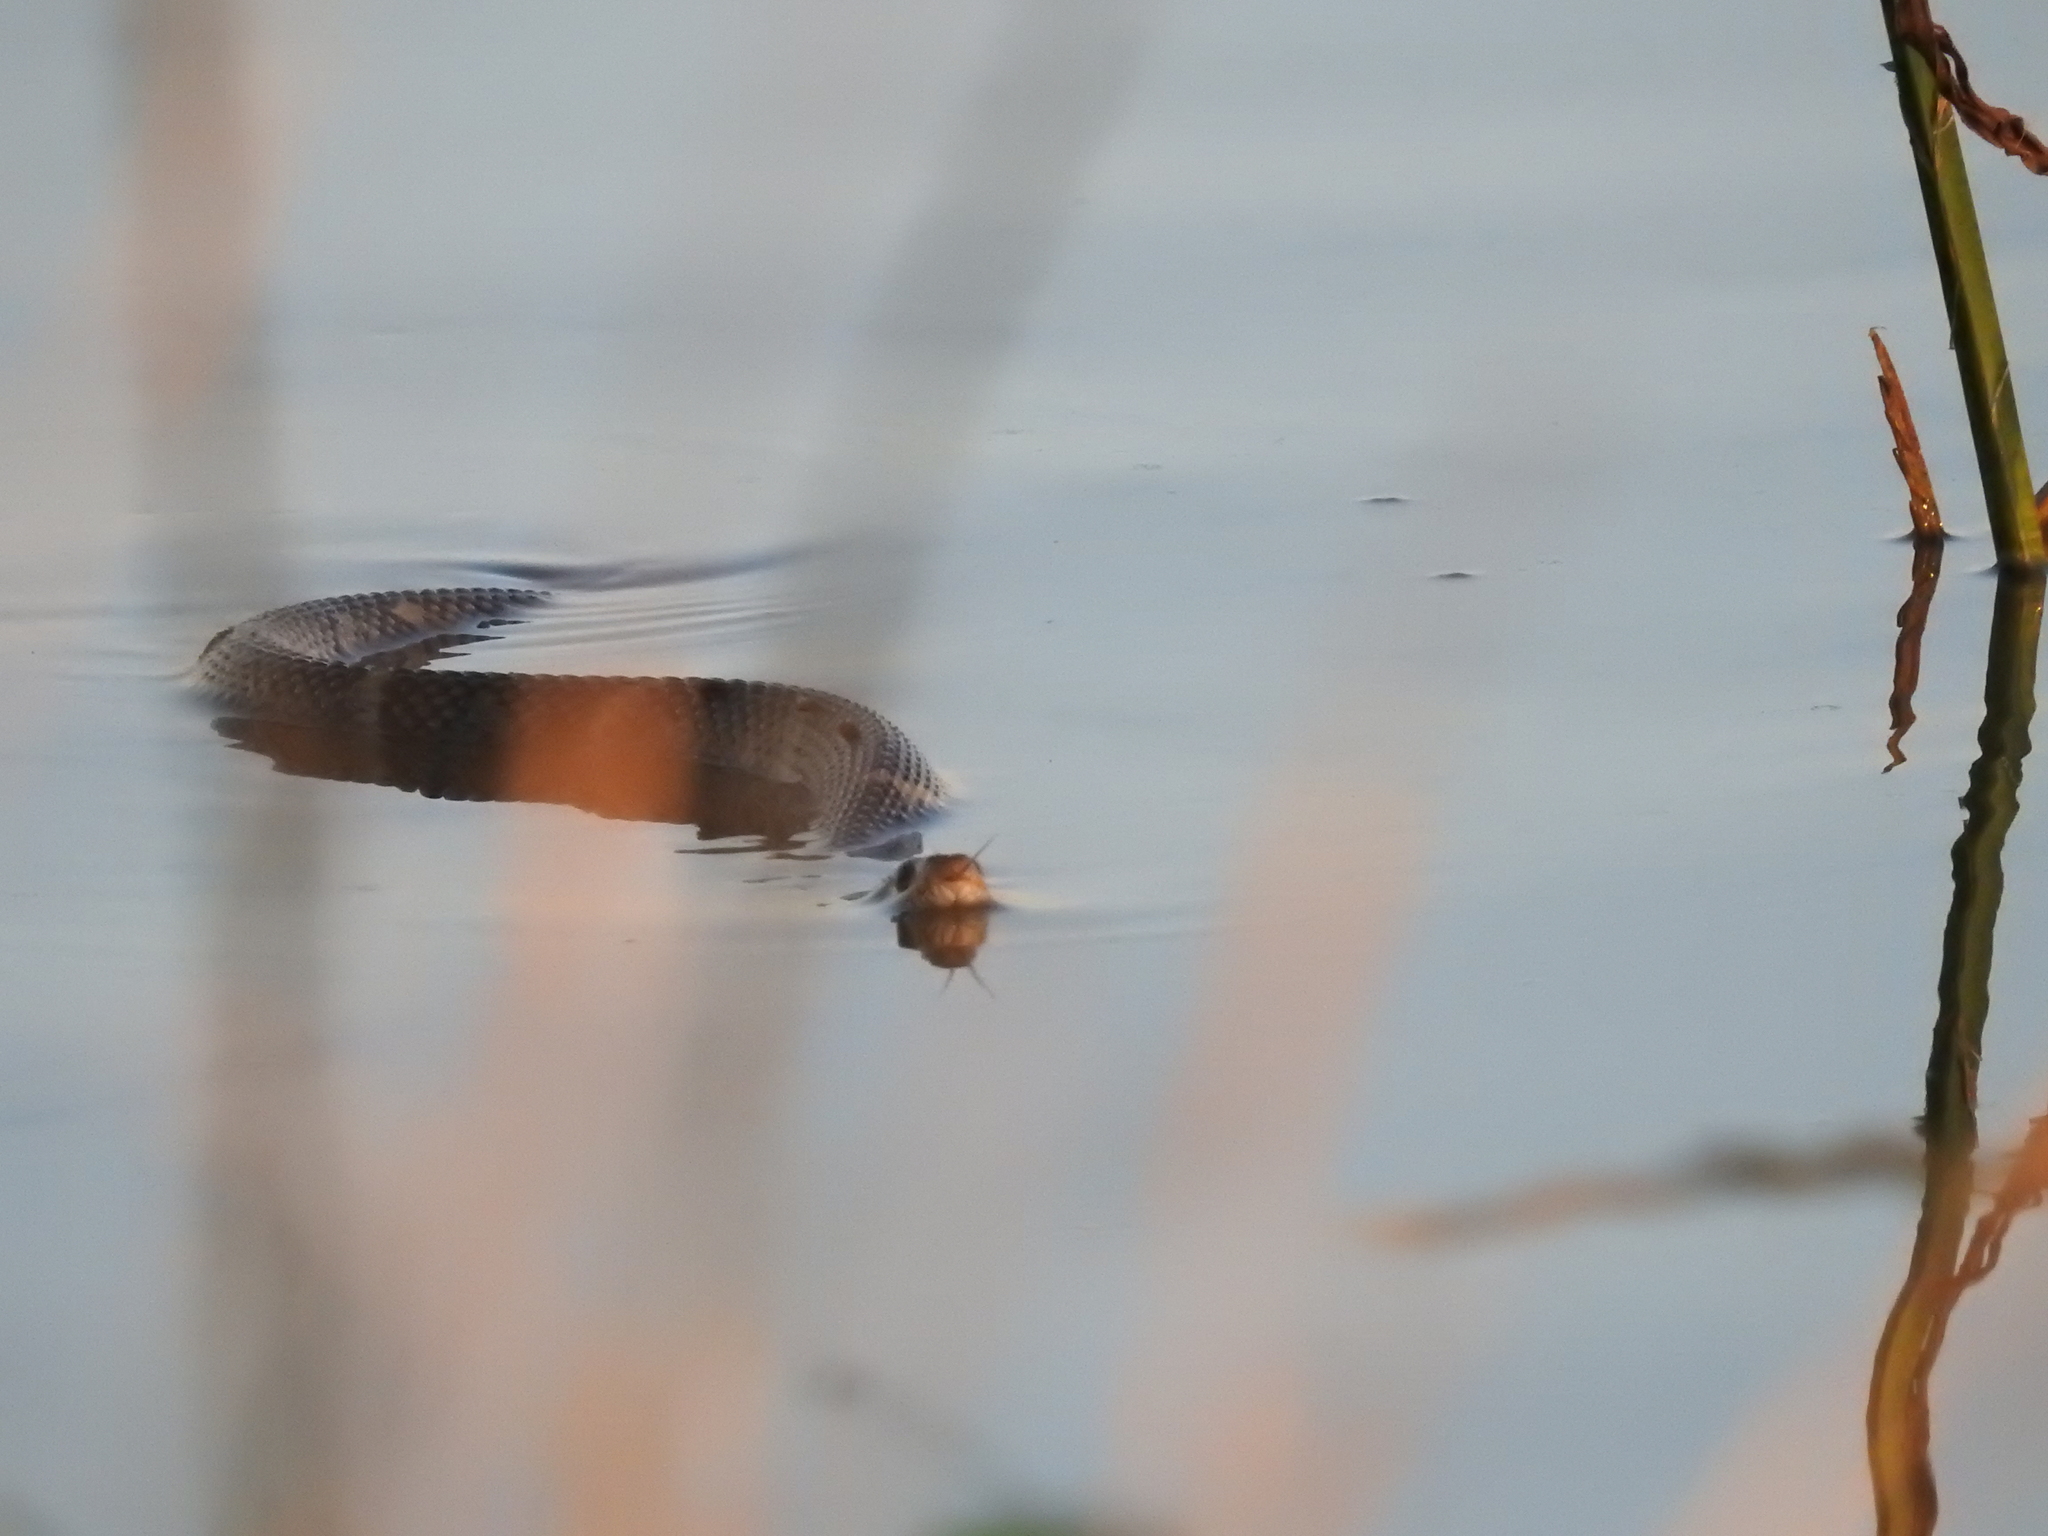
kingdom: Animalia
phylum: Chordata
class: Squamata
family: Colubridae
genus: Nerodia
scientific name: Nerodia fasciata
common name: Southern water snake
